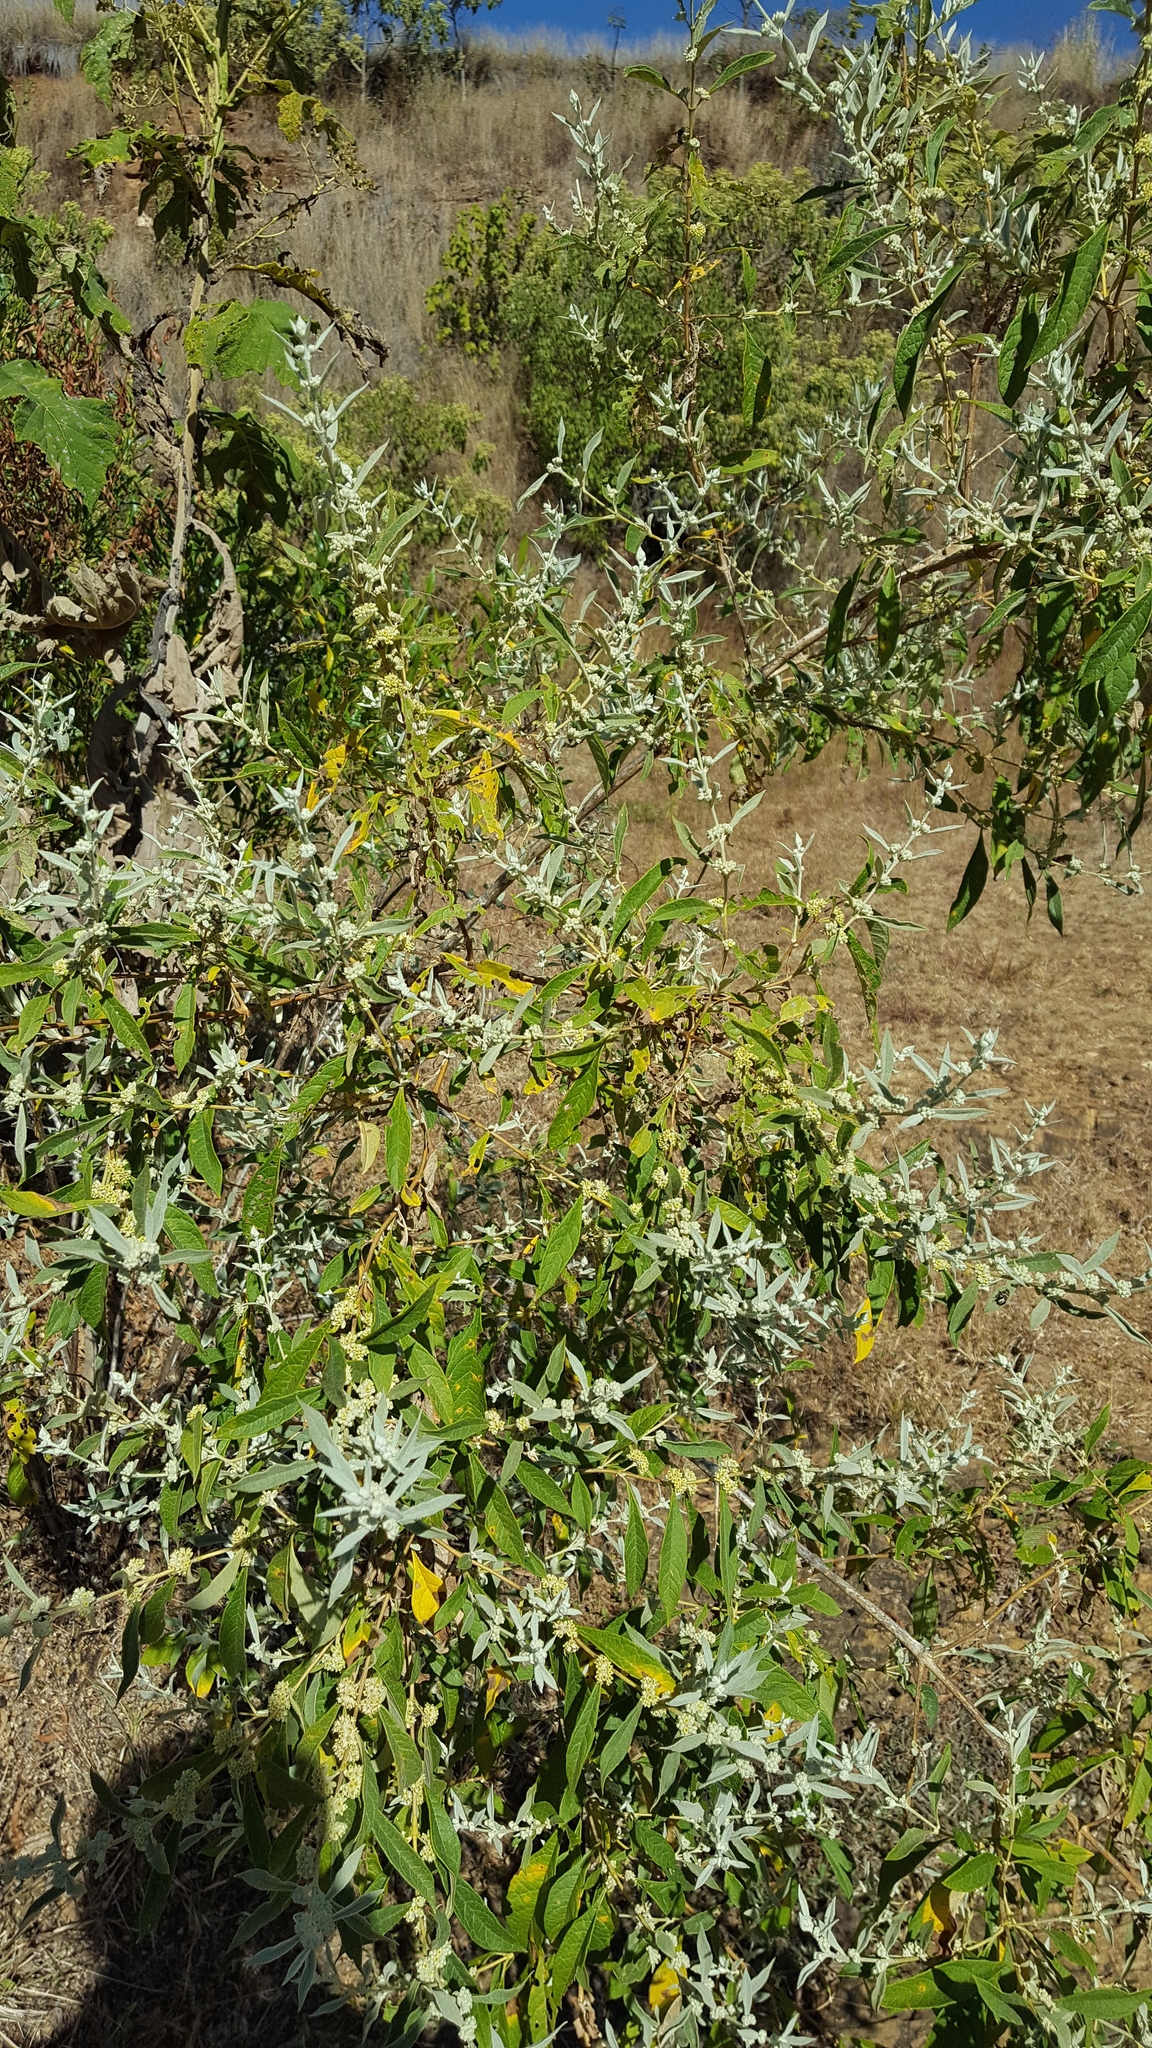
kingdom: Plantae
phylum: Tracheophyta
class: Magnoliopsida
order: Lamiales
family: Scrophulariaceae
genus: Buddleja
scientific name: Buddleja sessiliflora
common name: Rio grande butterfly-bush
